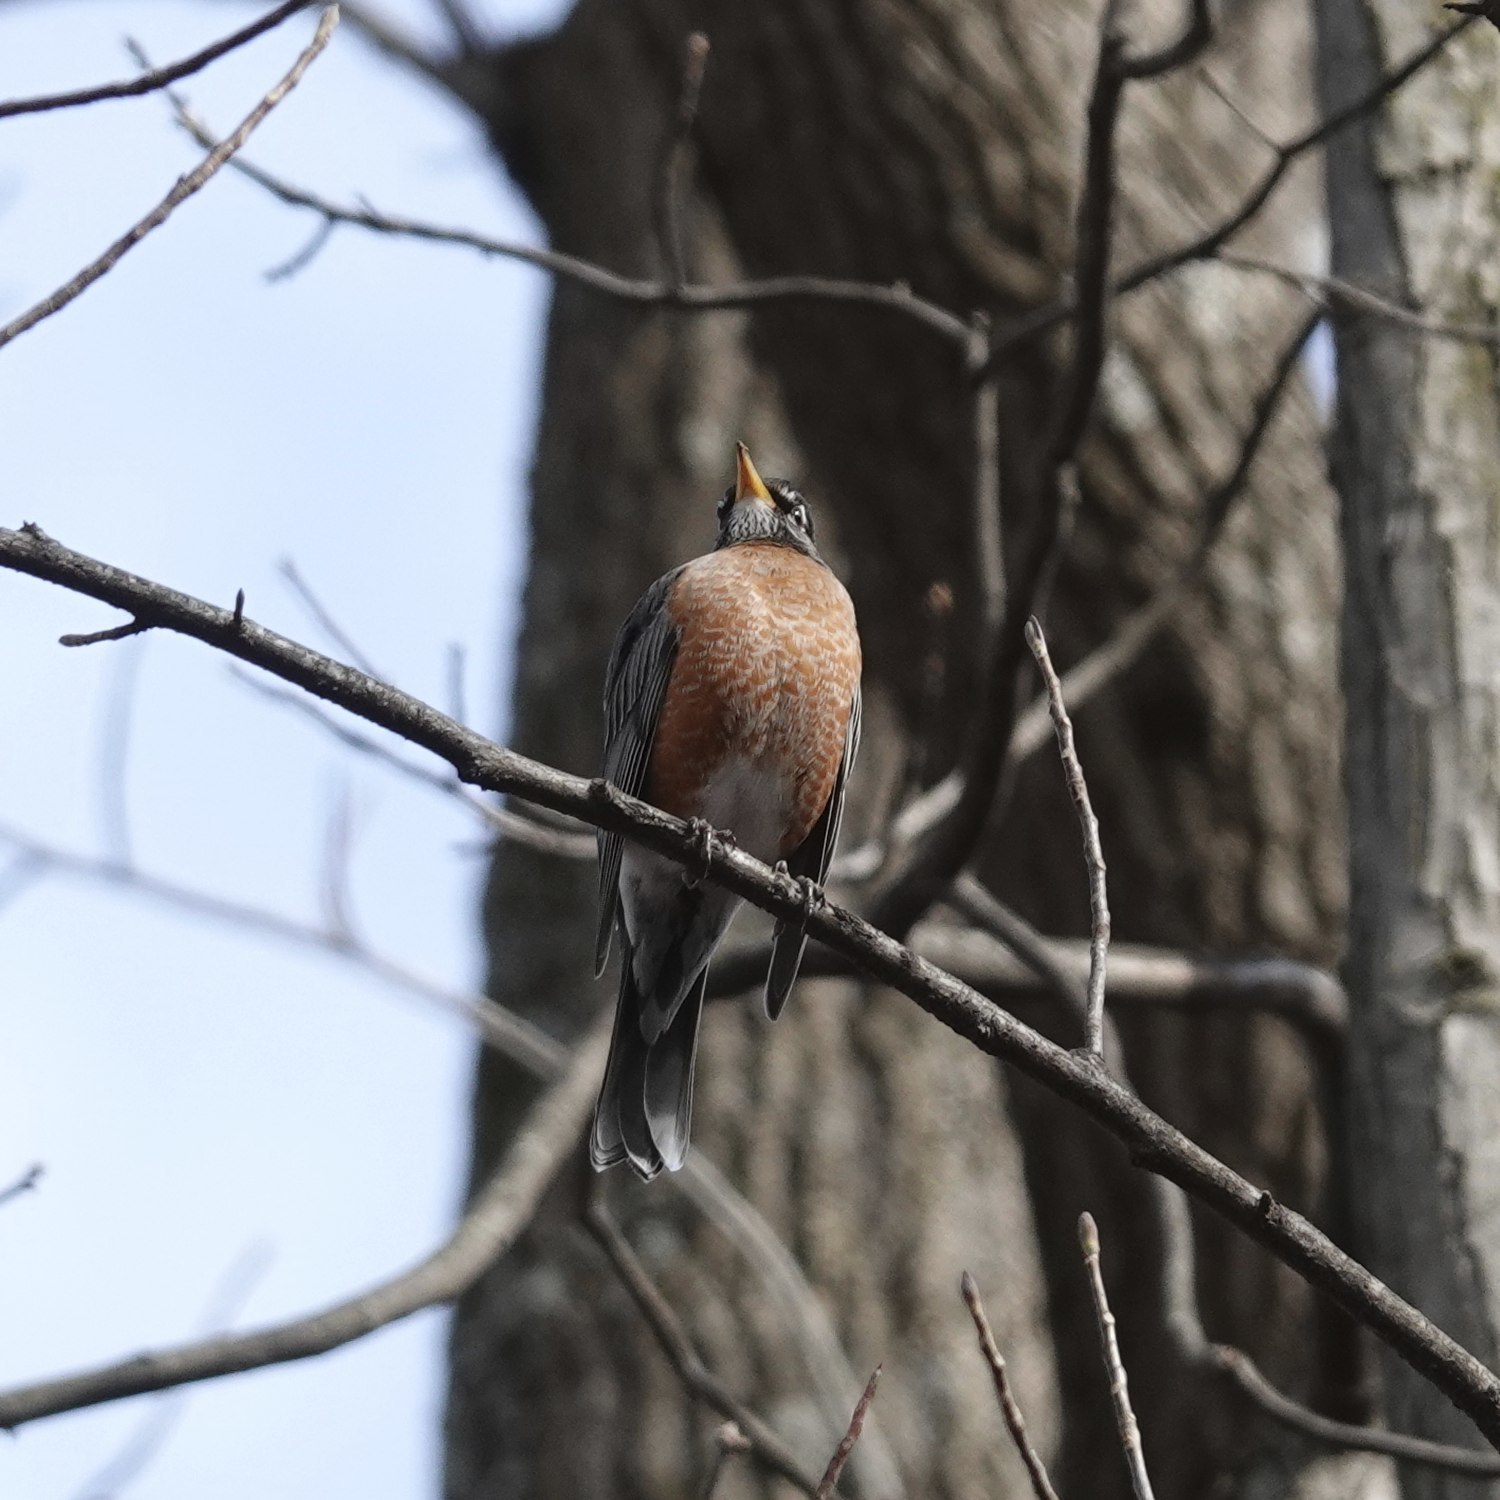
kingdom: Animalia
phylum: Chordata
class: Aves
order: Passeriformes
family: Turdidae
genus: Turdus
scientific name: Turdus migratorius
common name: American robin
